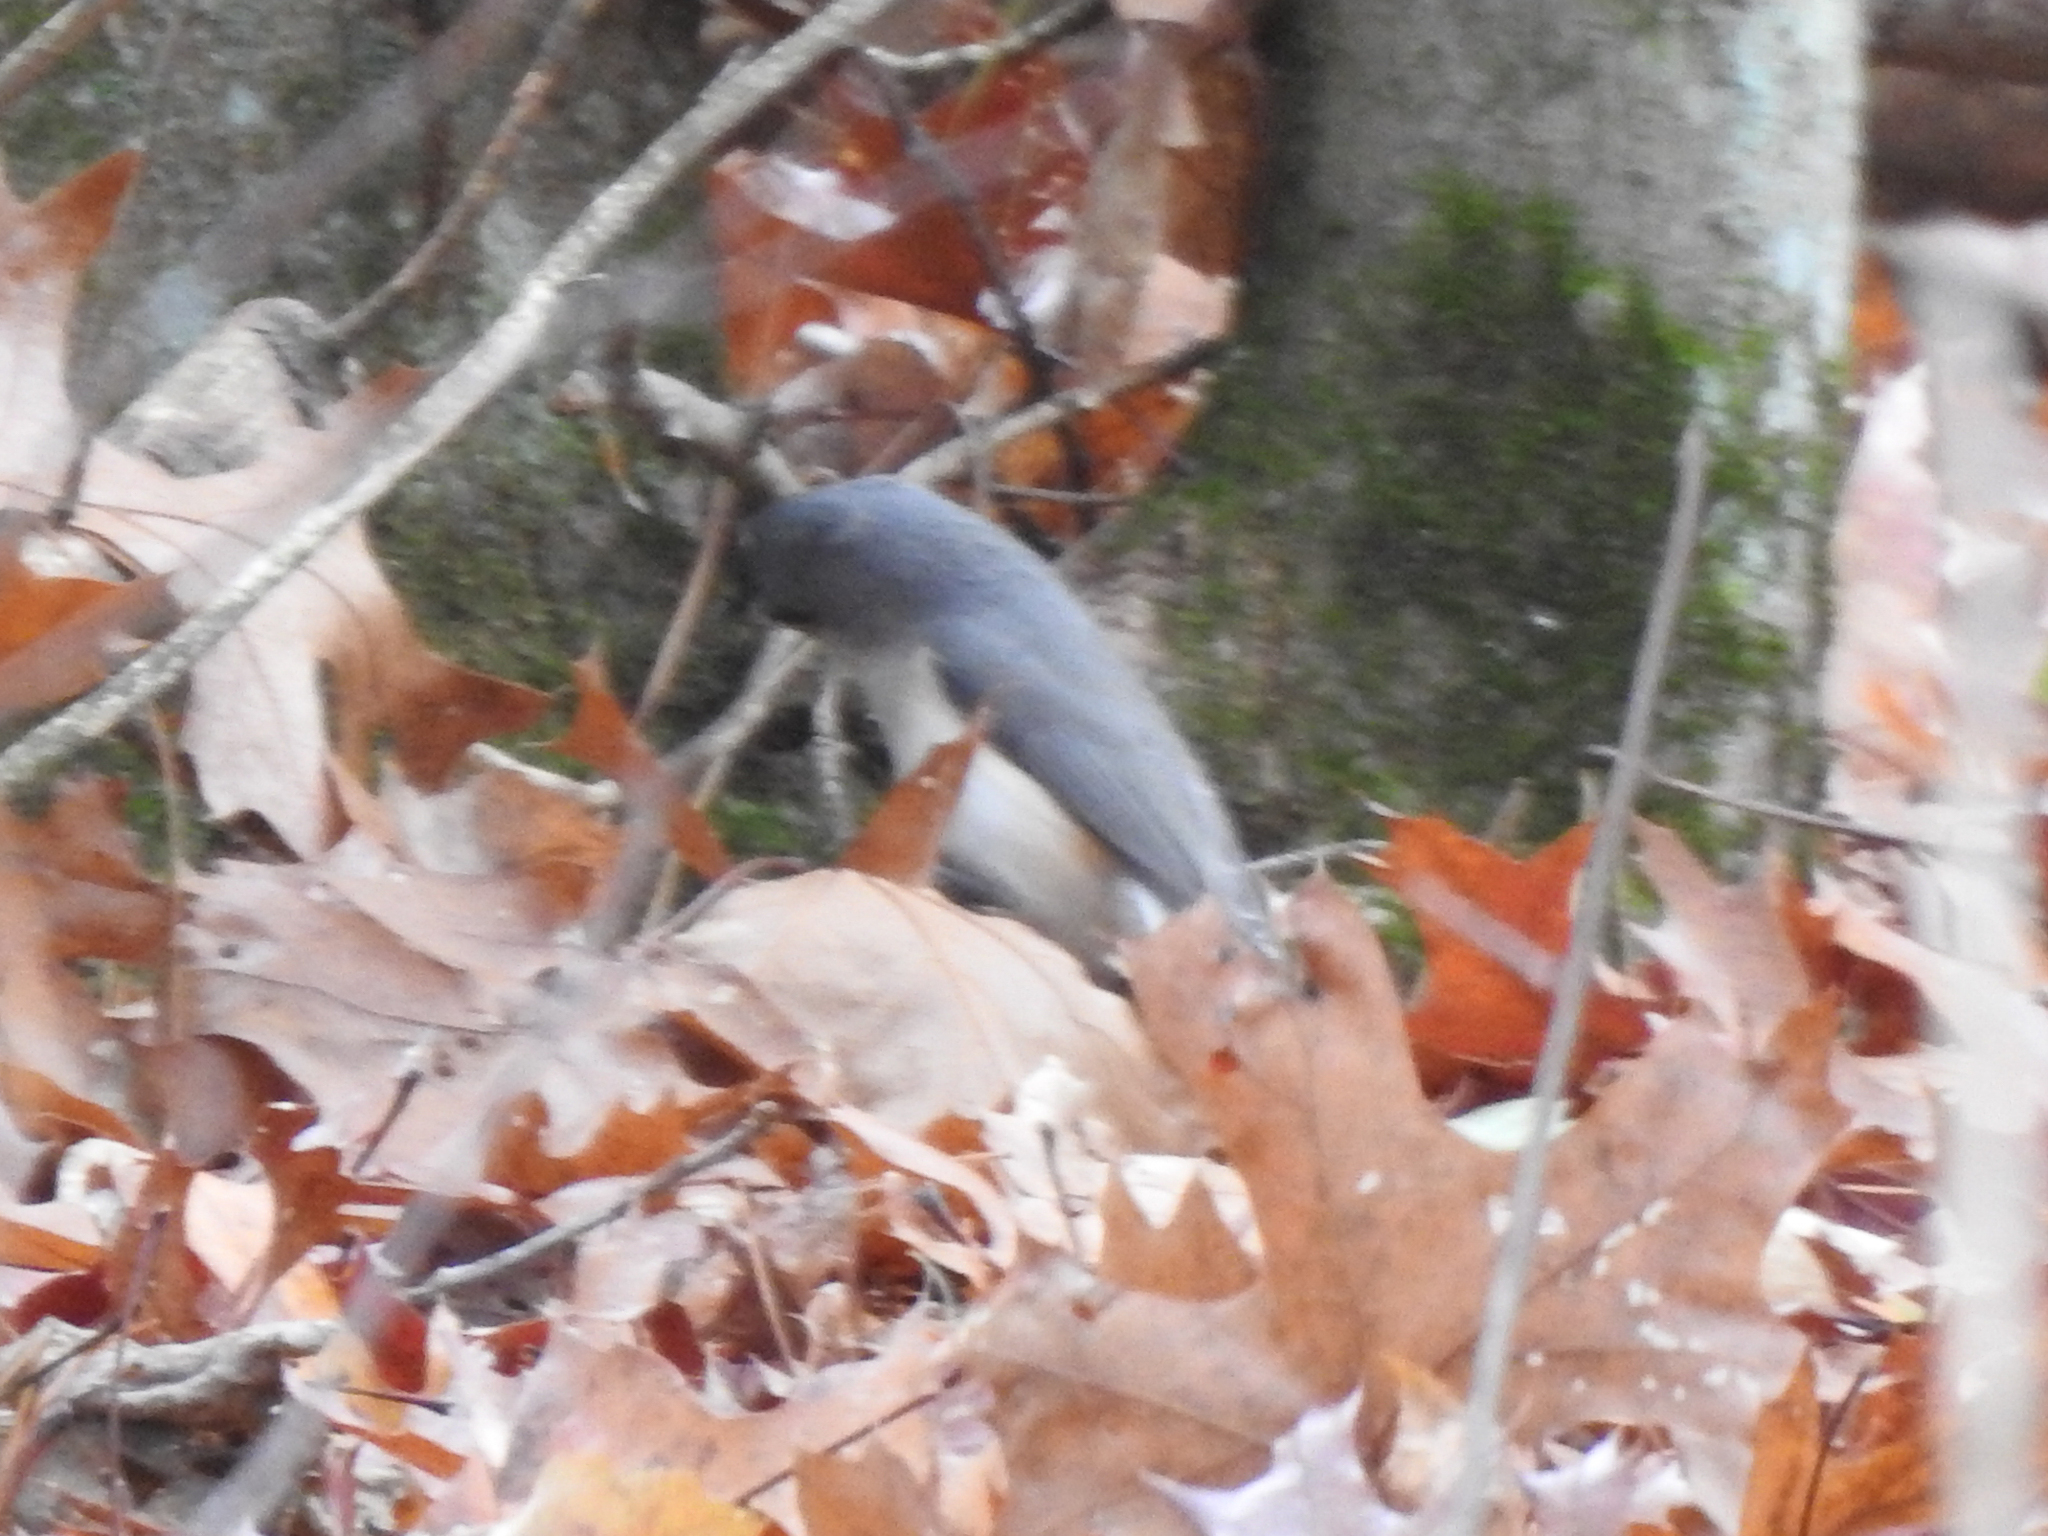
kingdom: Animalia
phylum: Chordata
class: Aves
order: Passeriformes
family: Paridae
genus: Baeolophus
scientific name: Baeolophus bicolor
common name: Tufted titmouse
